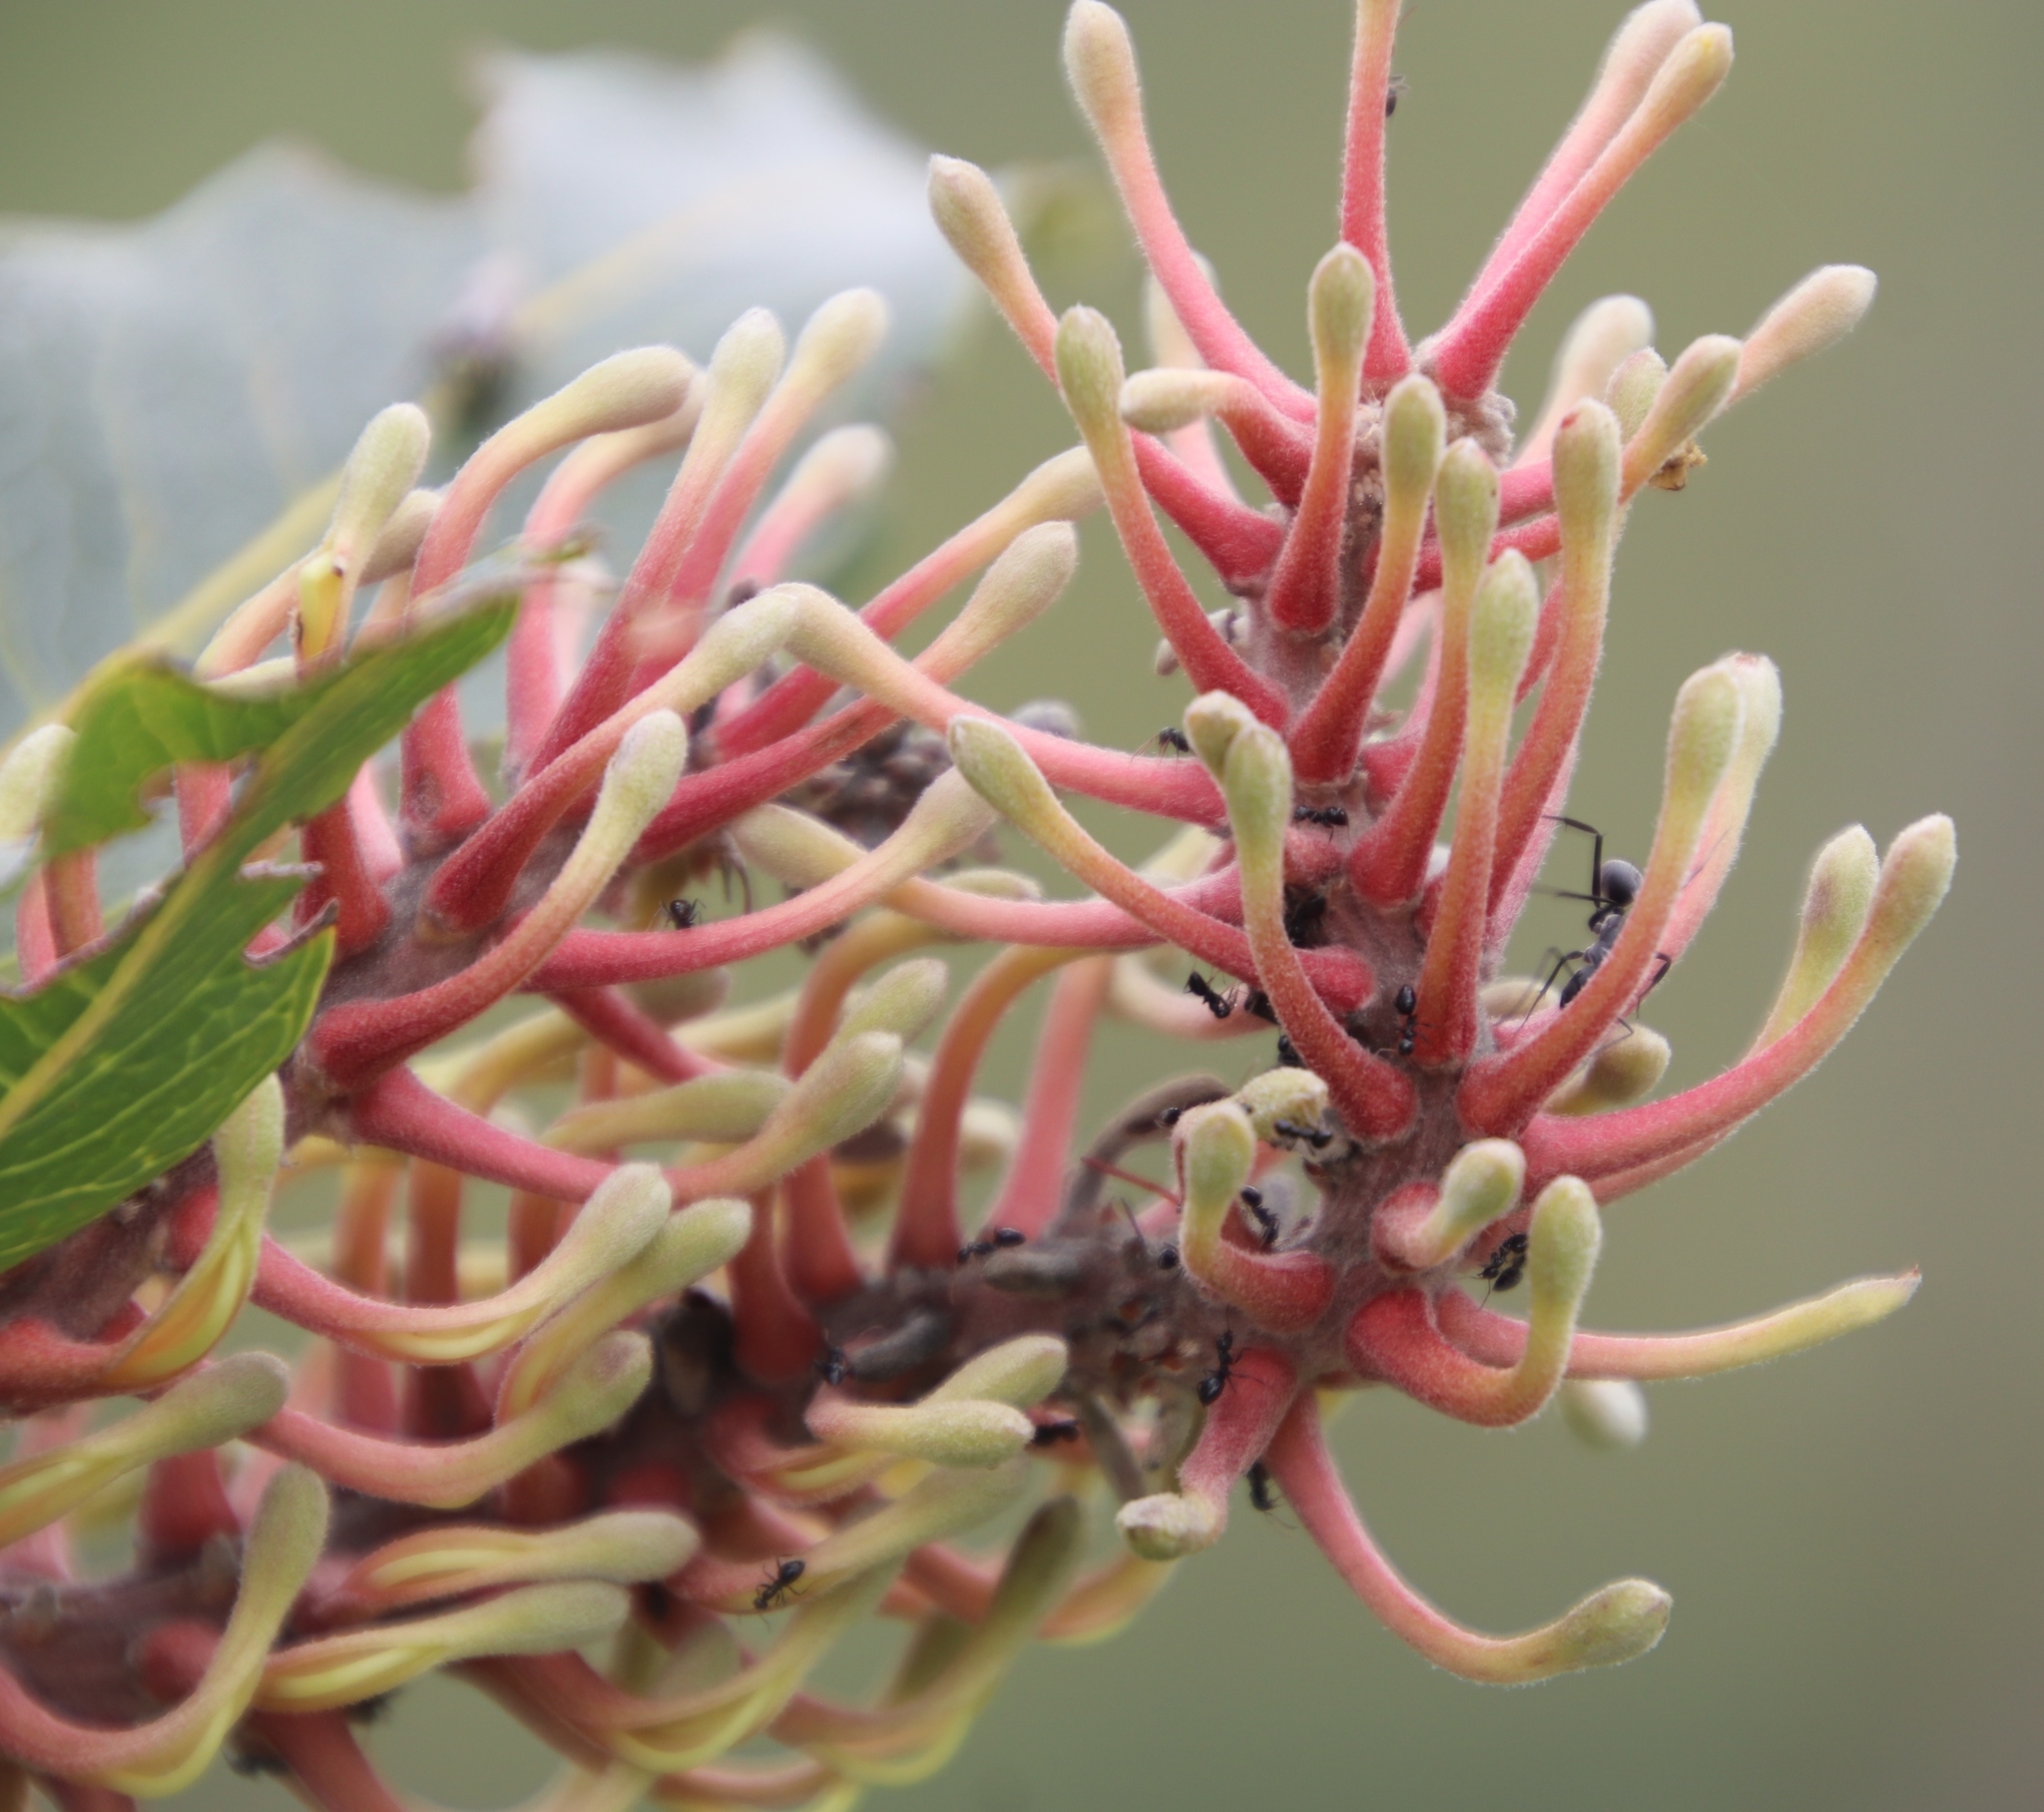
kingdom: Animalia
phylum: Arthropoda
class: Insecta
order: Hymenoptera
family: Formicidae
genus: Lepisiota
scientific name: Lepisiota incisa
